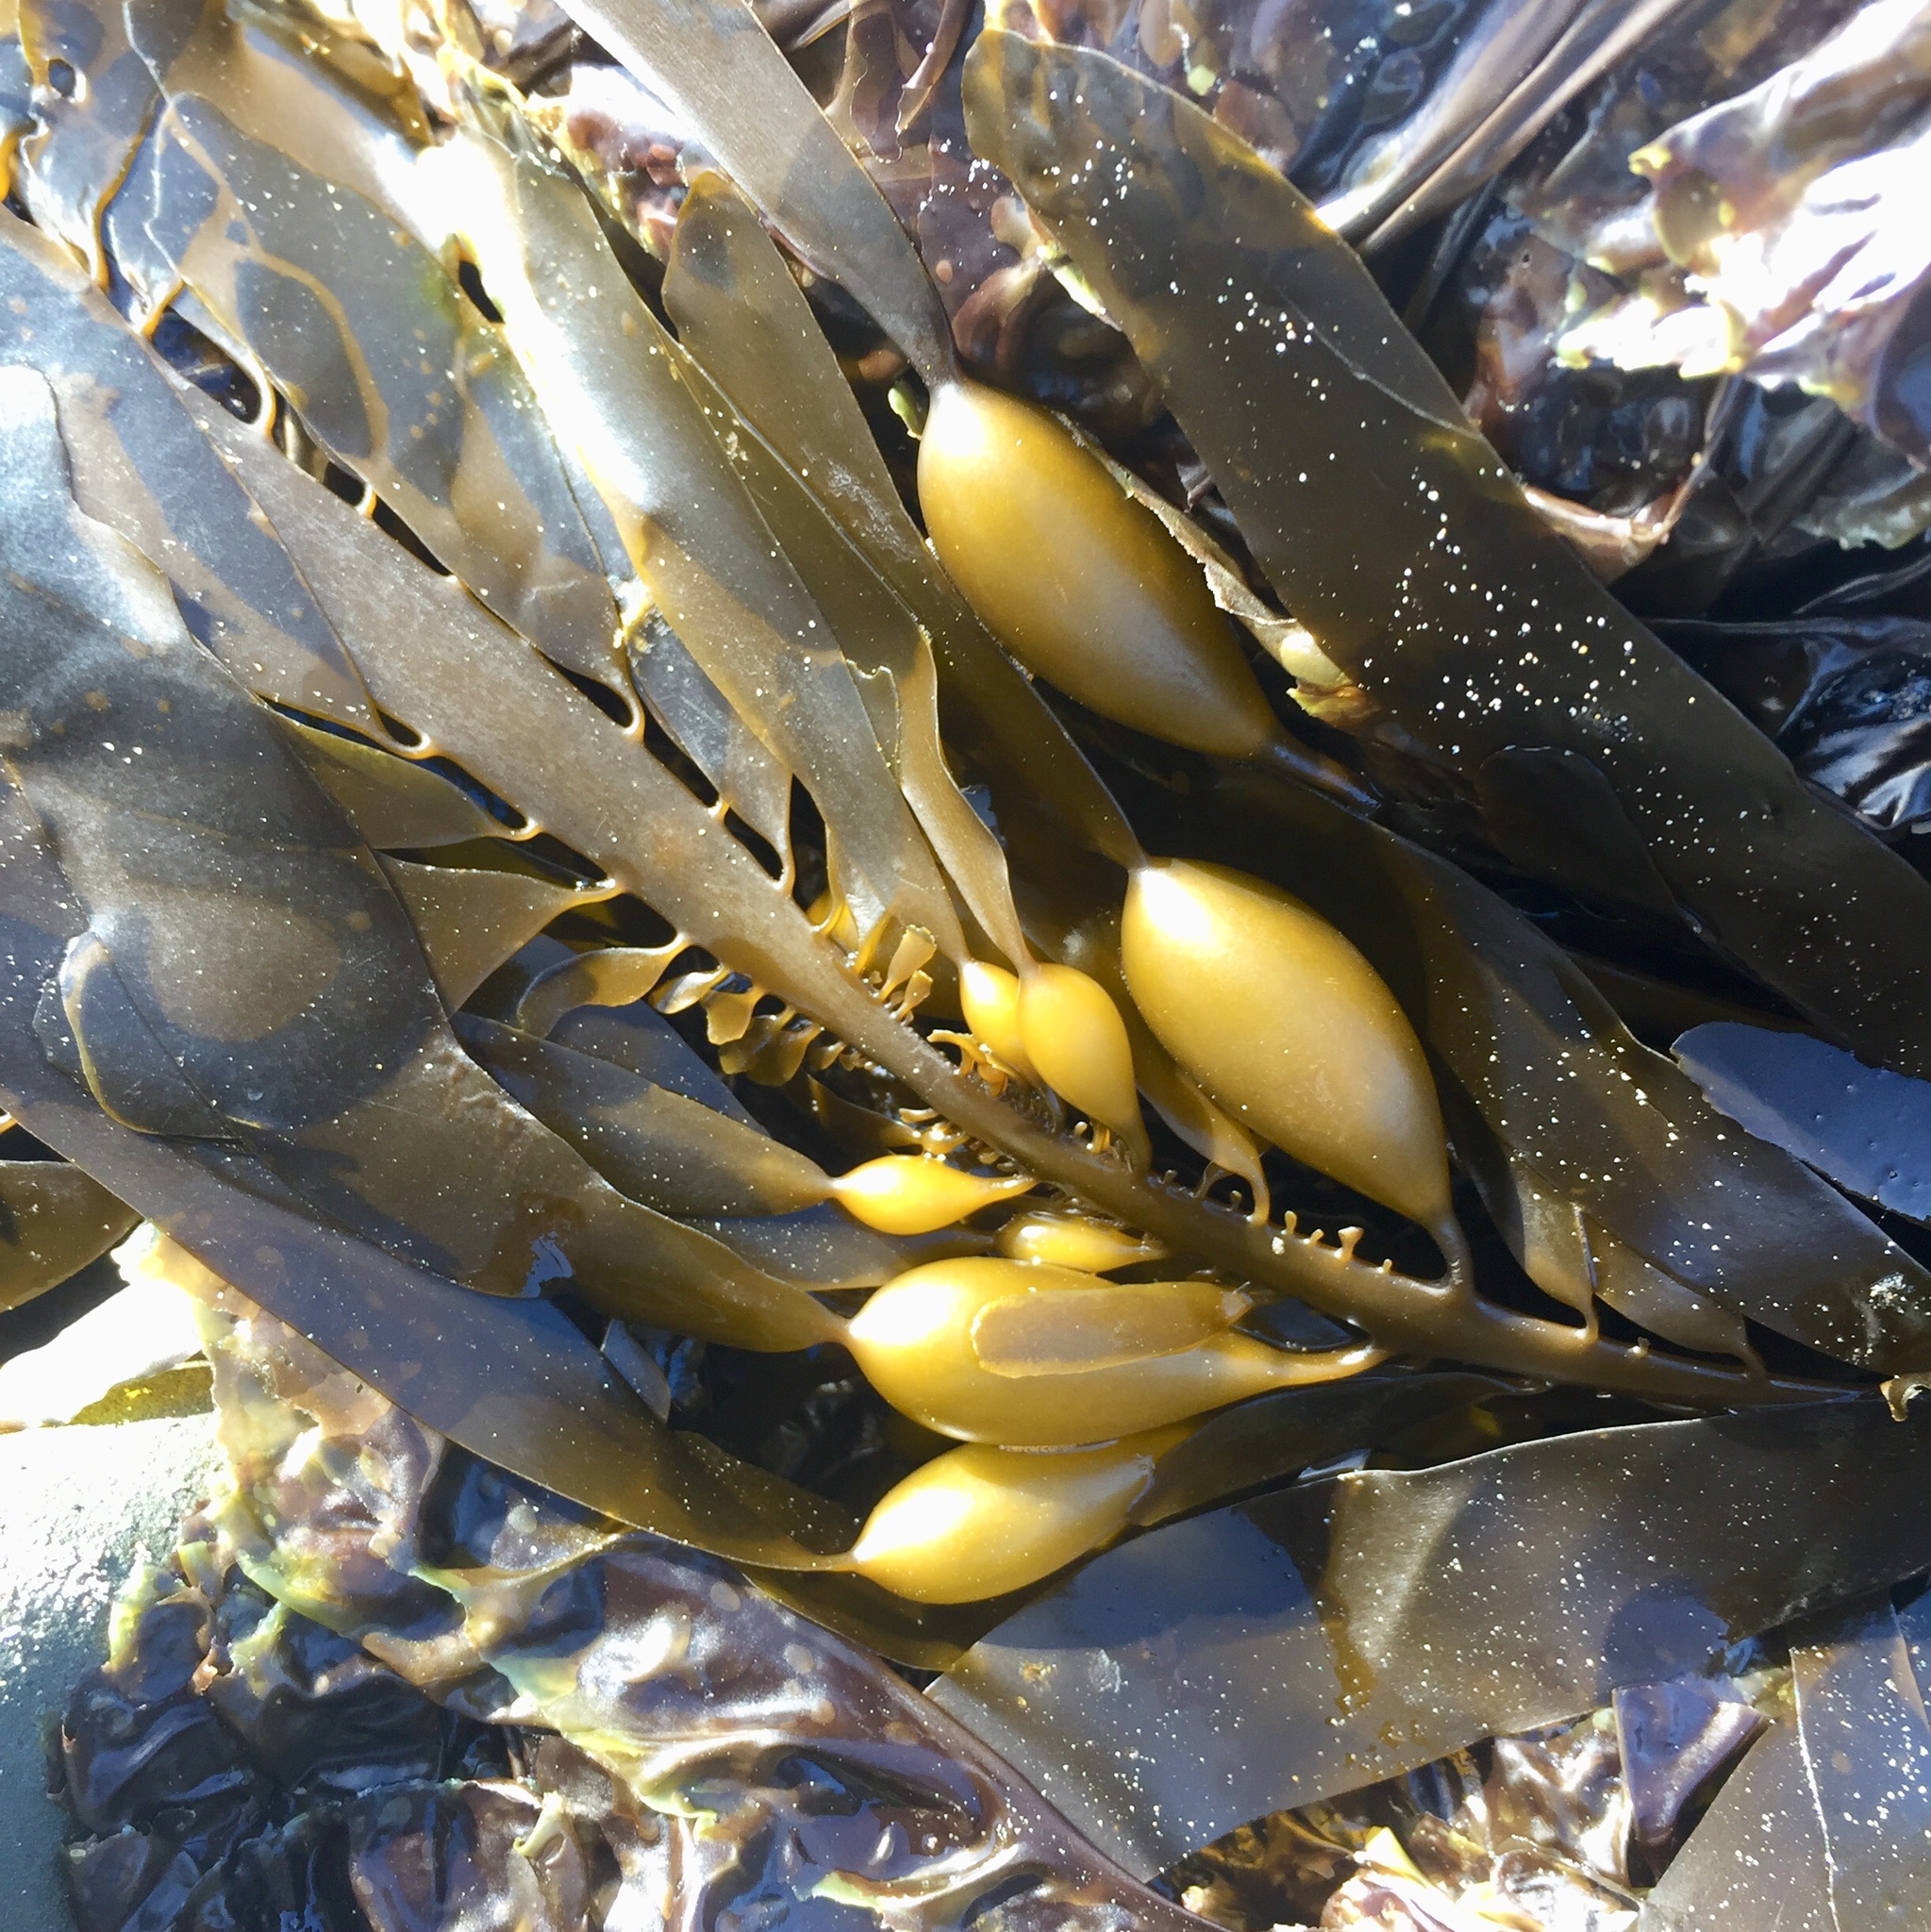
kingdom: Chromista
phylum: Ochrophyta
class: Phaeophyceae
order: Laminariales
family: Lessoniaceae
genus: Egregia
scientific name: Egregia menziesii
